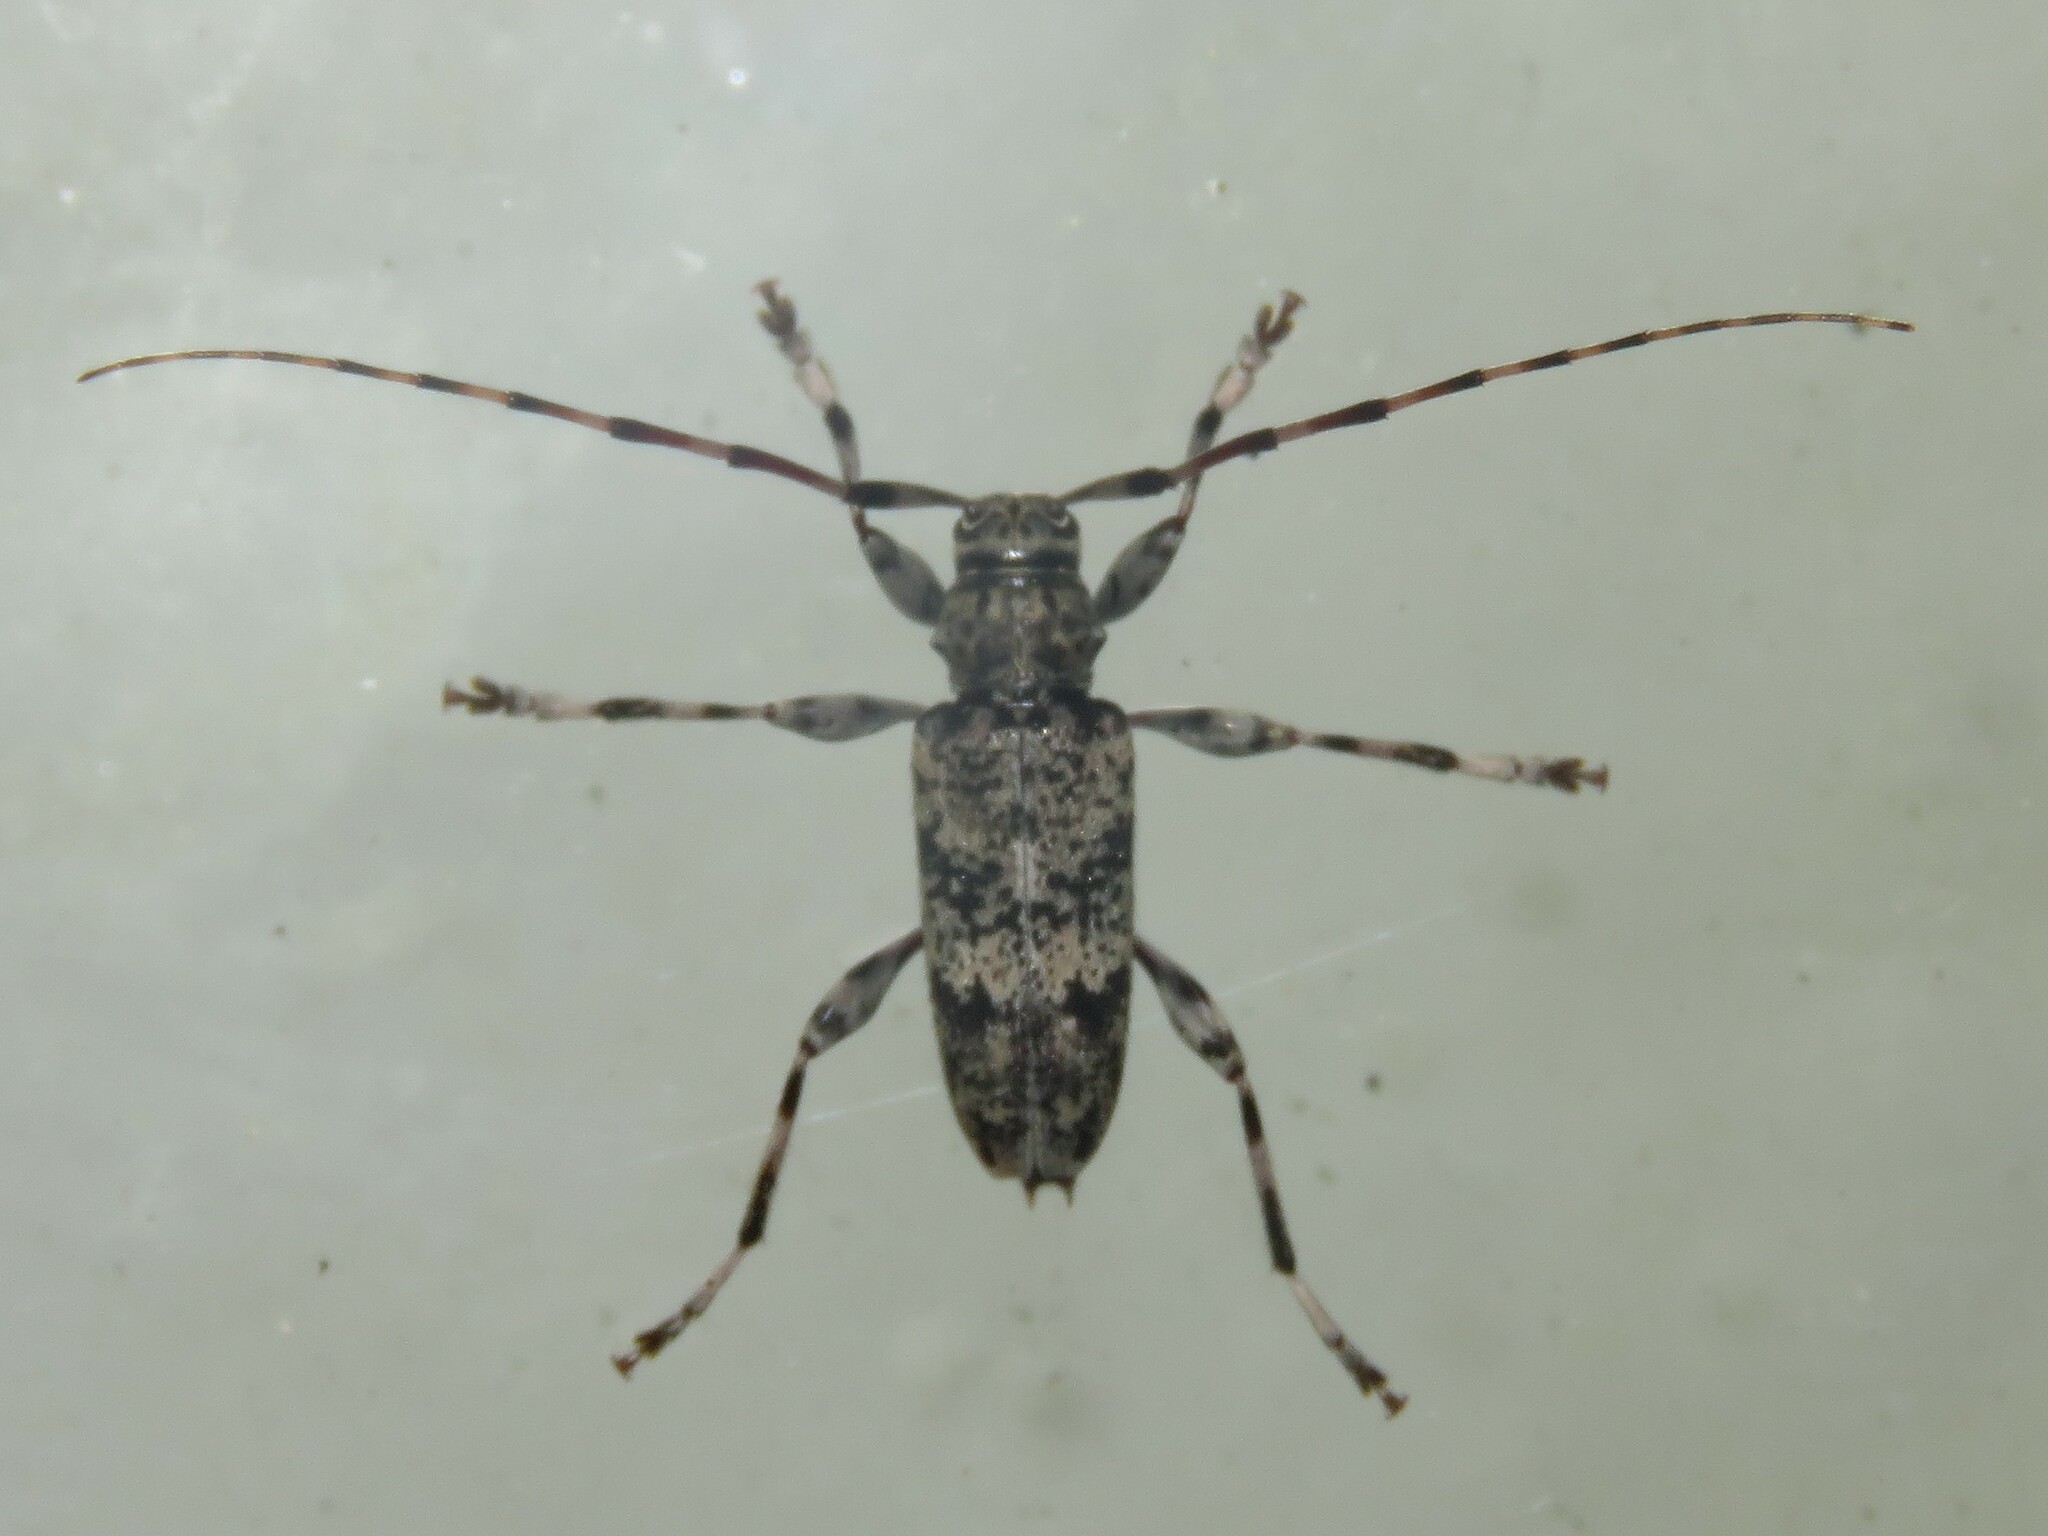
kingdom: Animalia
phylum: Arthropoda
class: Insecta
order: Coleoptera
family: Cerambycidae
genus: Graphisurus
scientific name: Graphisurus fasciatus
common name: Banded graphisurus
